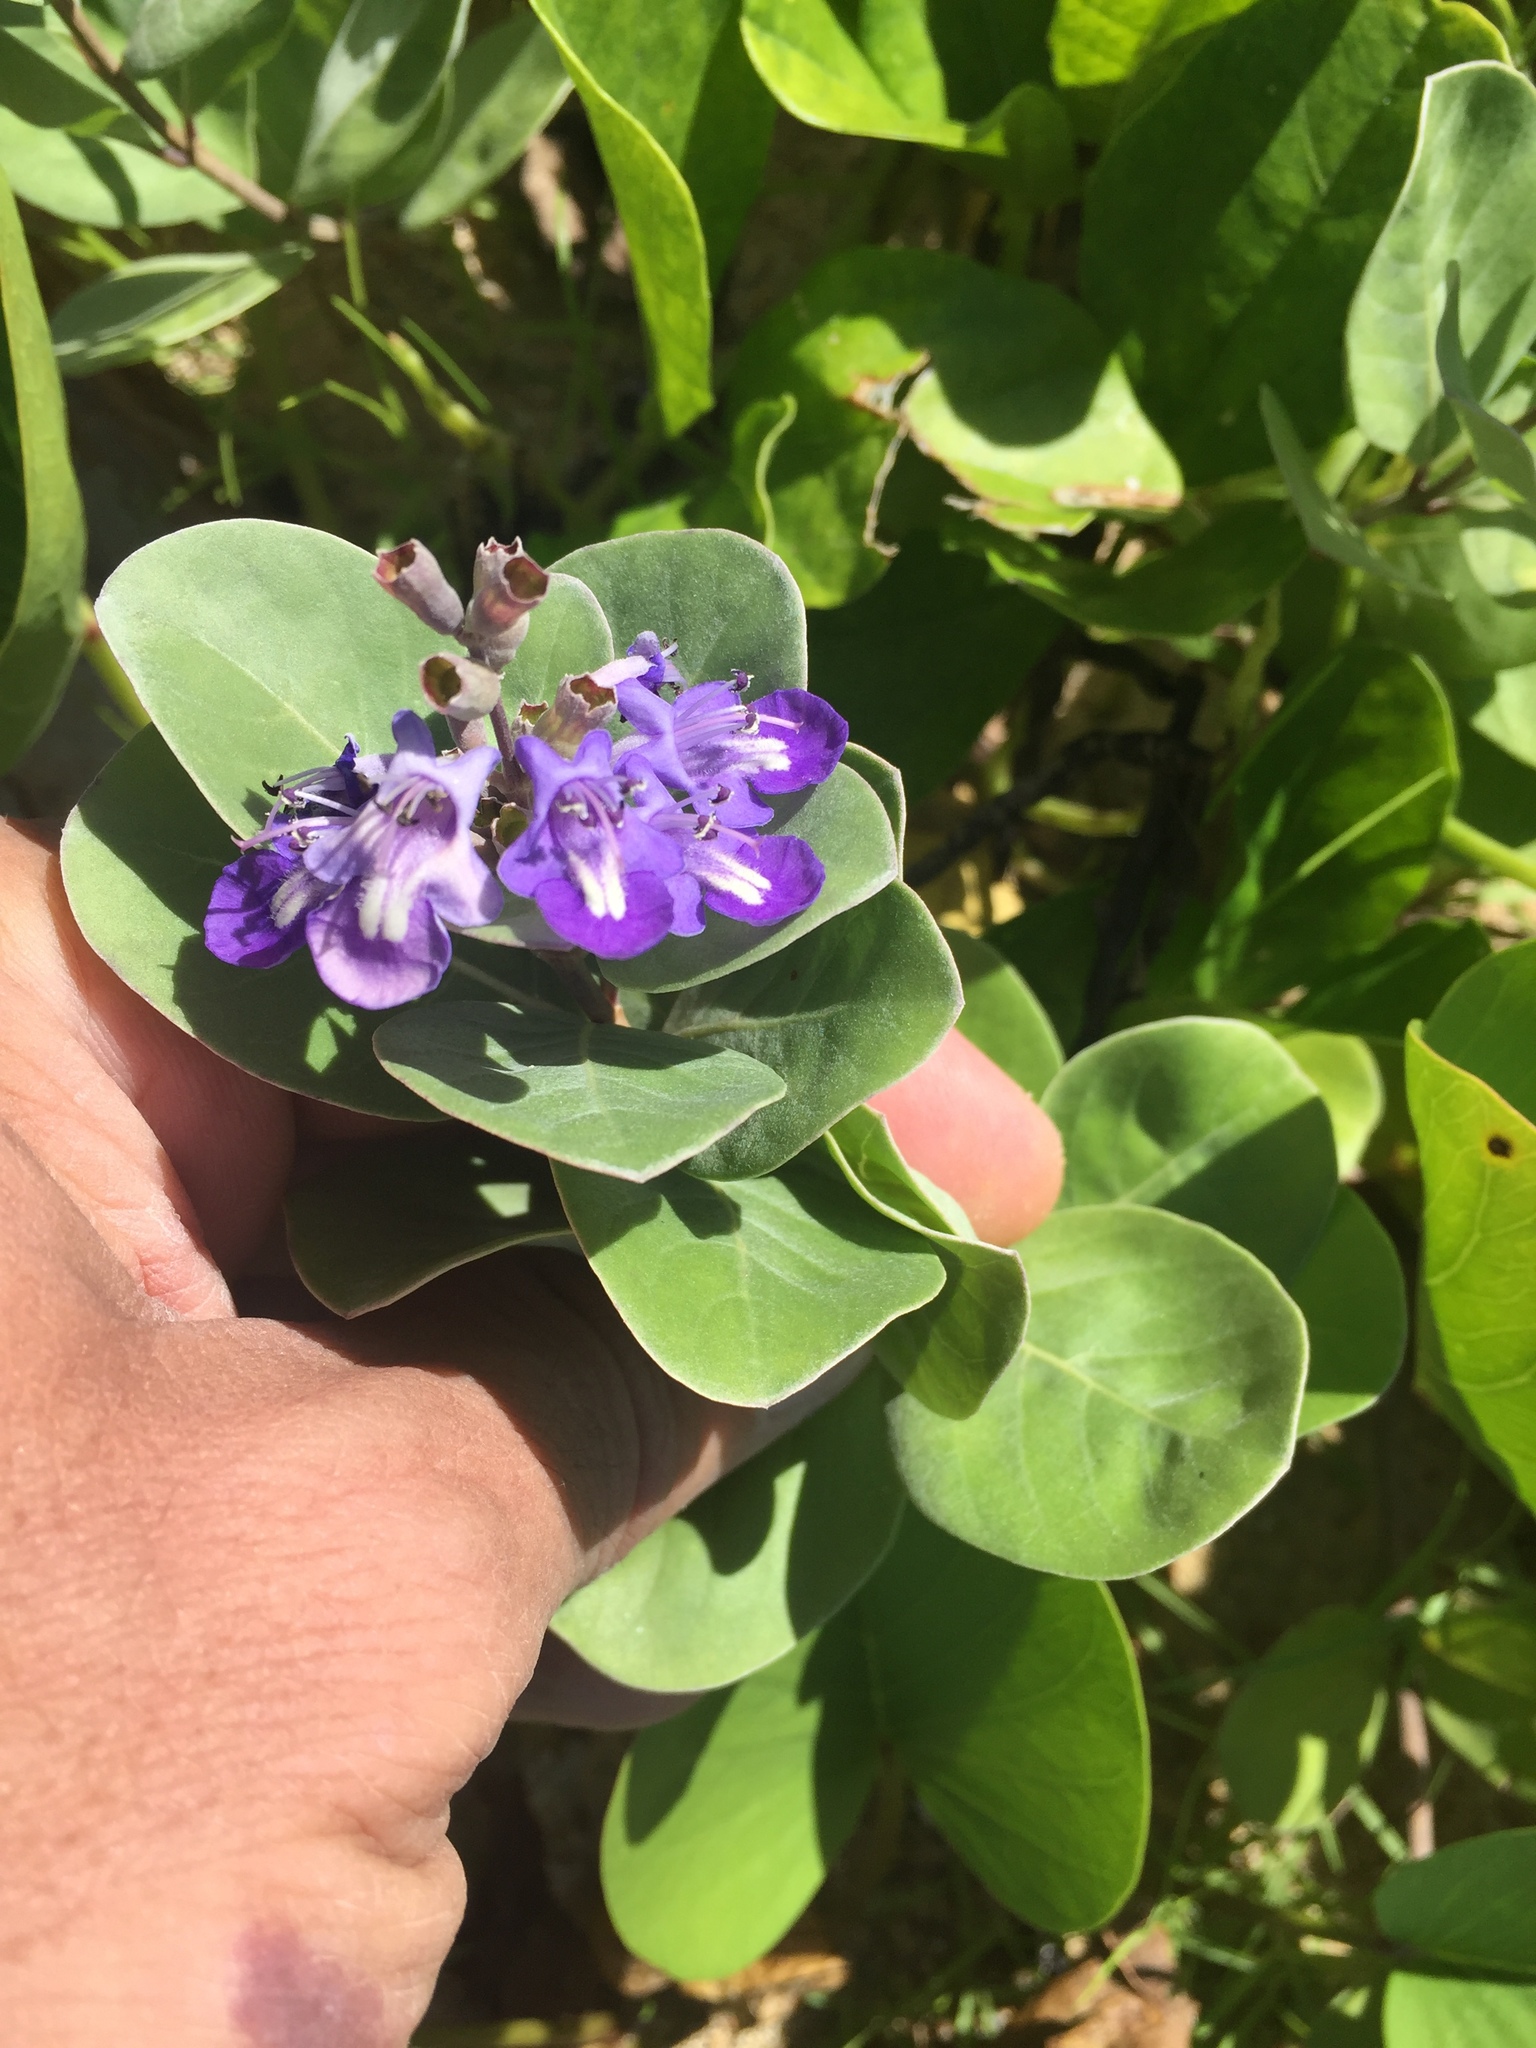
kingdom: Plantae
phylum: Tracheophyta
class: Magnoliopsida
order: Lamiales
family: Lamiaceae
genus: Vitex
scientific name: Vitex rotundifolia
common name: Beach vitex
